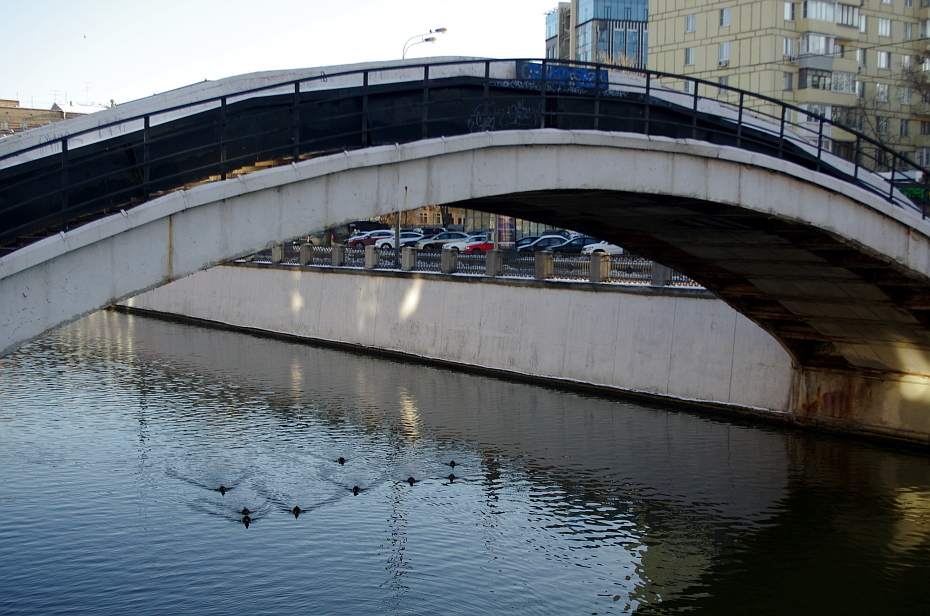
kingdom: Animalia
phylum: Chordata
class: Aves
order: Anseriformes
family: Anatidae
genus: Anas
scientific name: Anas platyrhynchos
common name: Mallard
